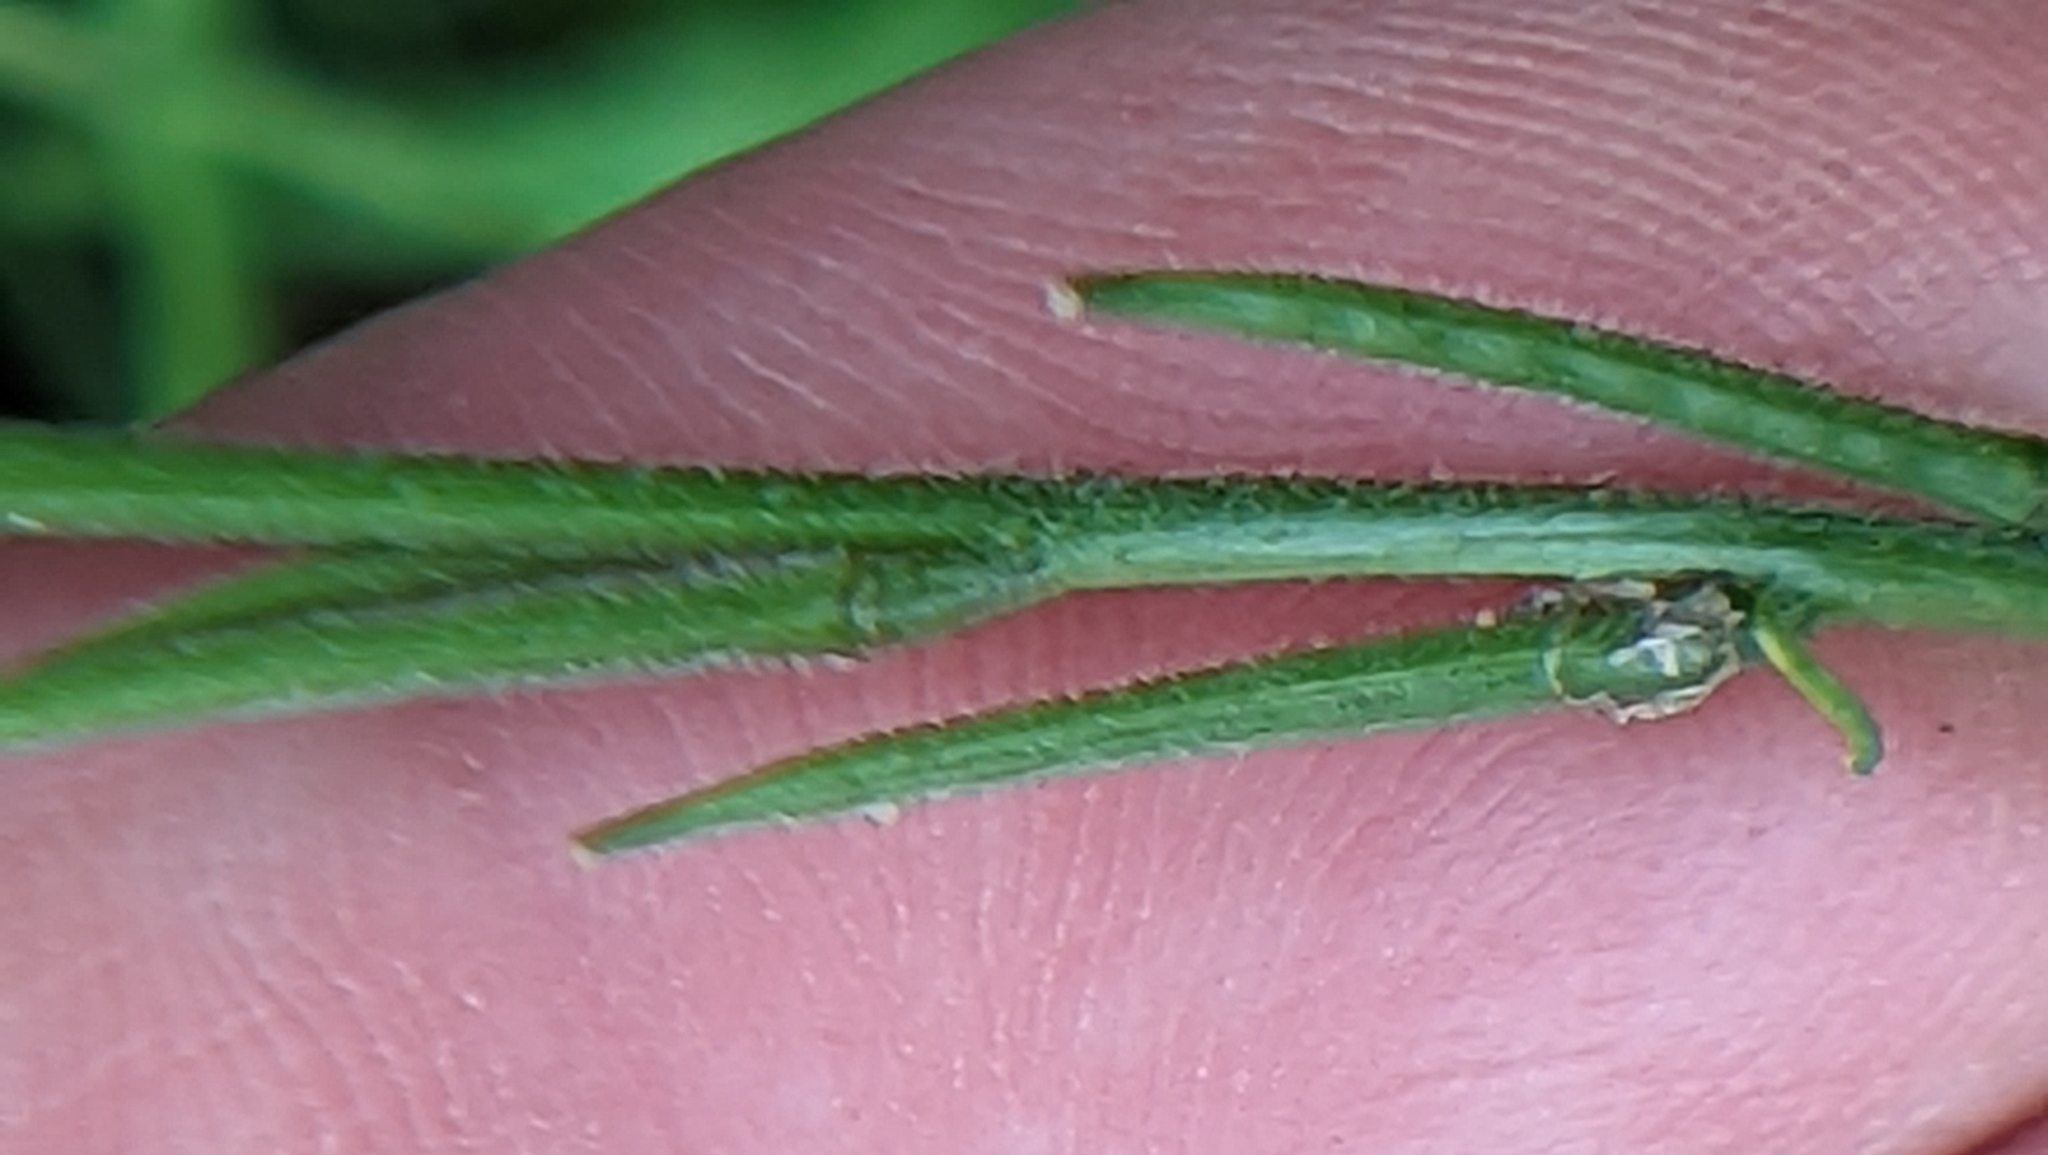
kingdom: Plantae
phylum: Tracheophyta
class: Magnoliopsida
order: Brassicales
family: Brassicaceae
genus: Sisymbrium
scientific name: Sisymbrium officinale
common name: Hedge mustard
